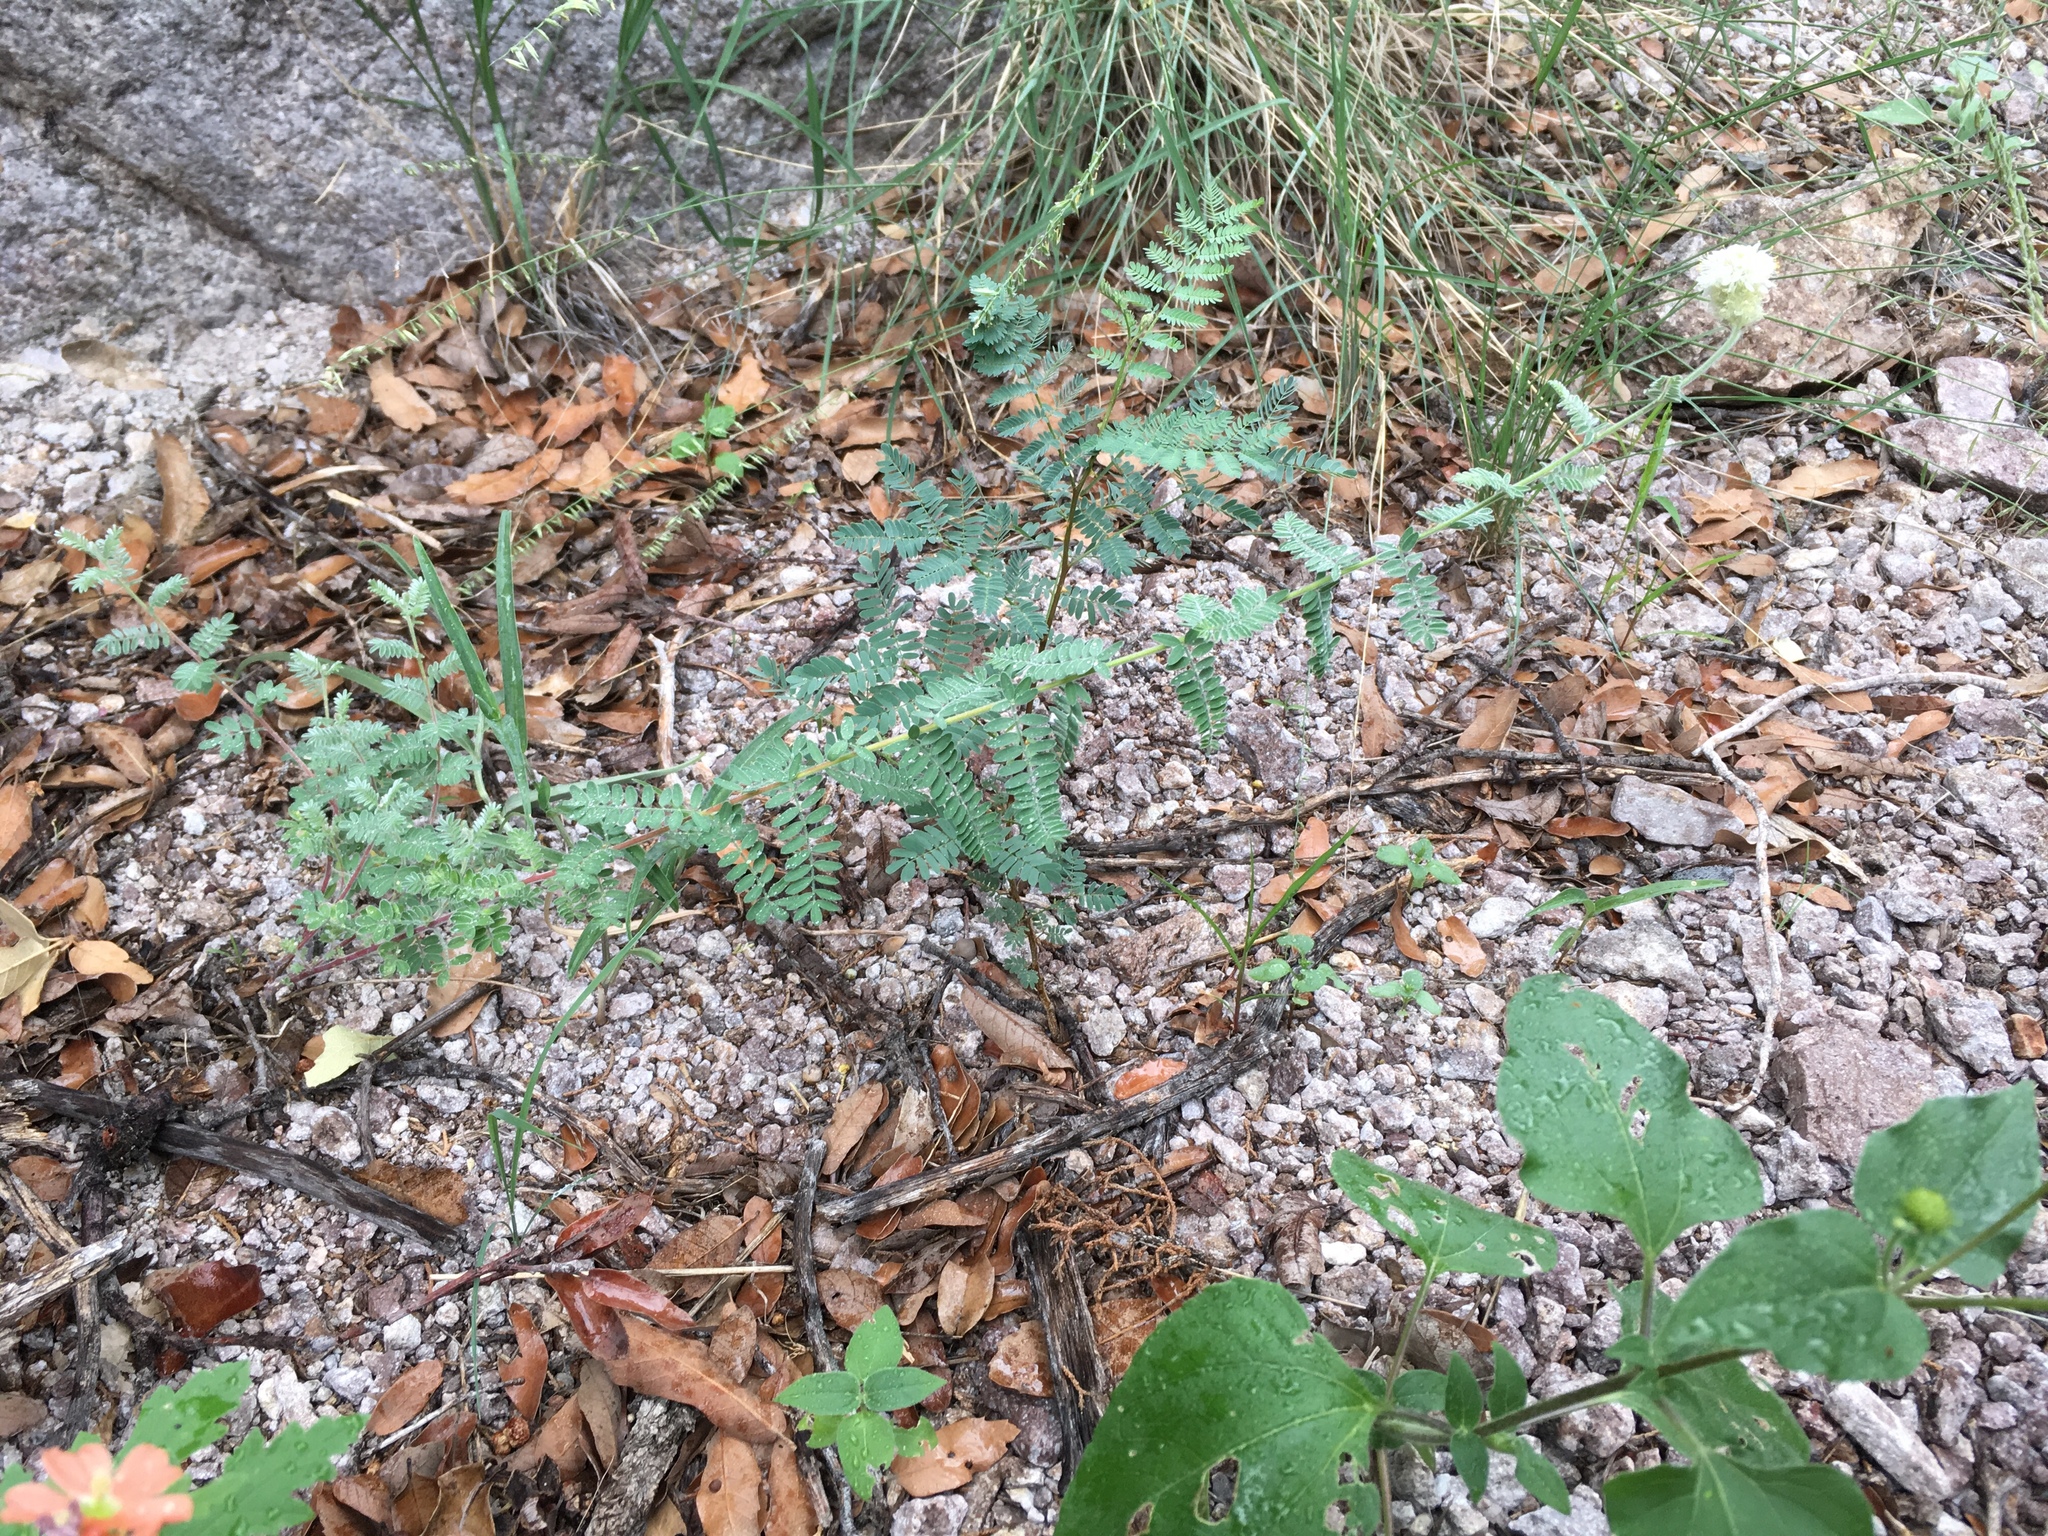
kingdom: Plantae
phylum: Tracheophyta
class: Magnoliopsida
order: Fabales
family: Fabaceae
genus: Dalea
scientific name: Dalea albiflora
